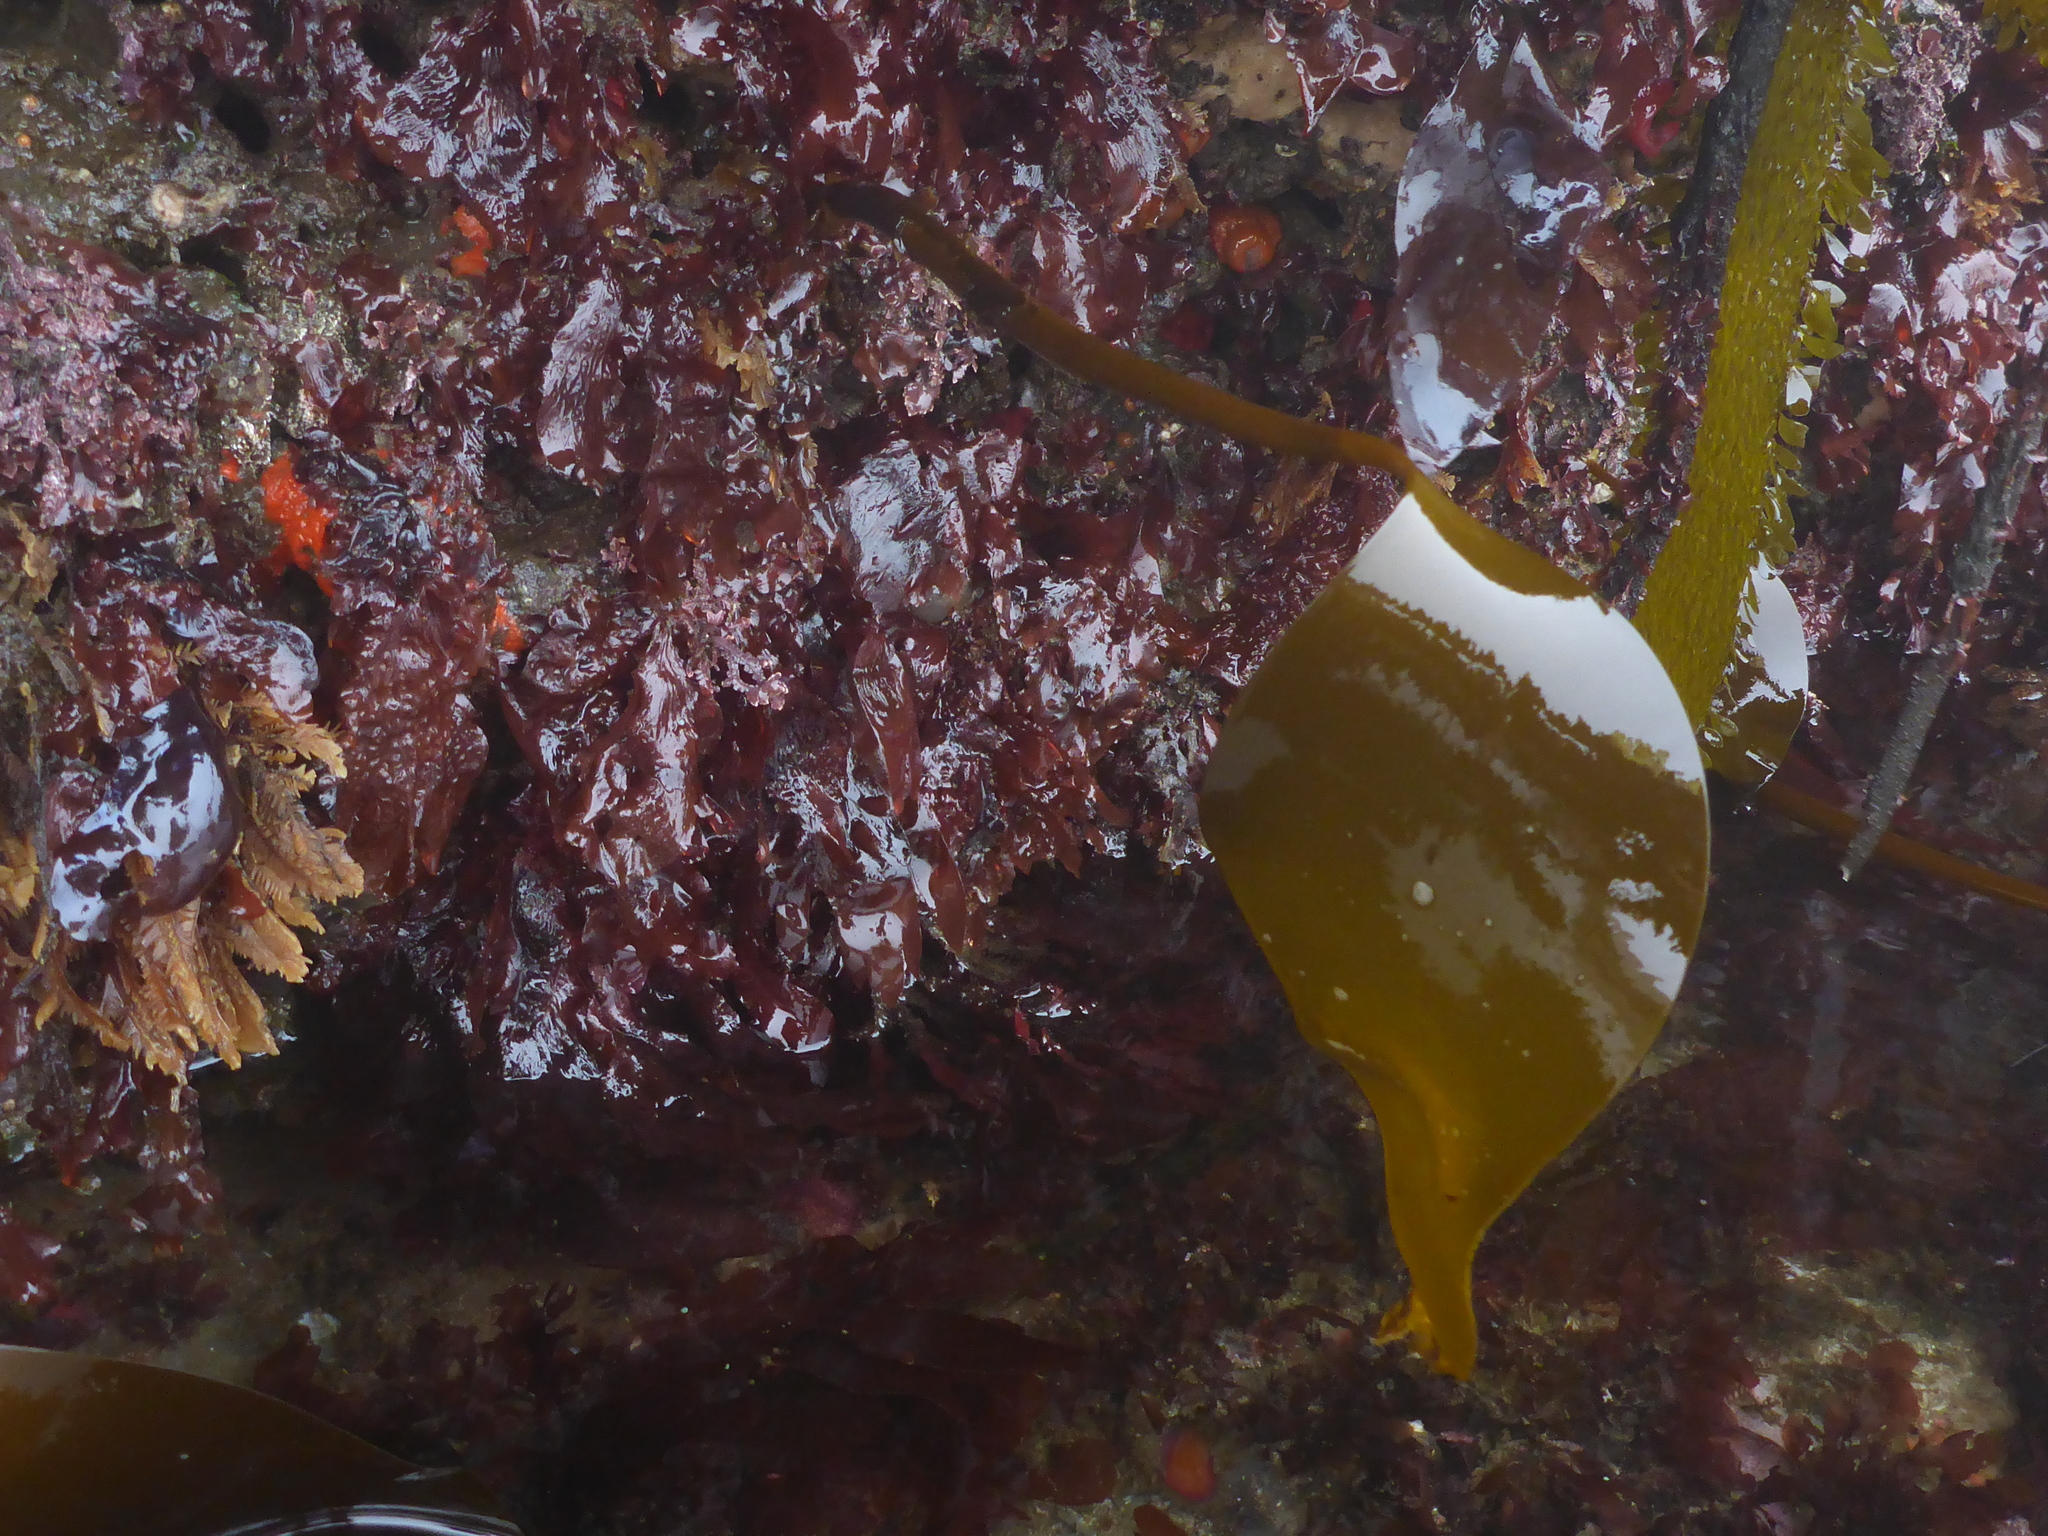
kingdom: Chromista
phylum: Ochrophyta
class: Phaeophyceae
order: Laminariales
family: Laminariaceae
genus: Laminaria
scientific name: Laminaria setchellii
